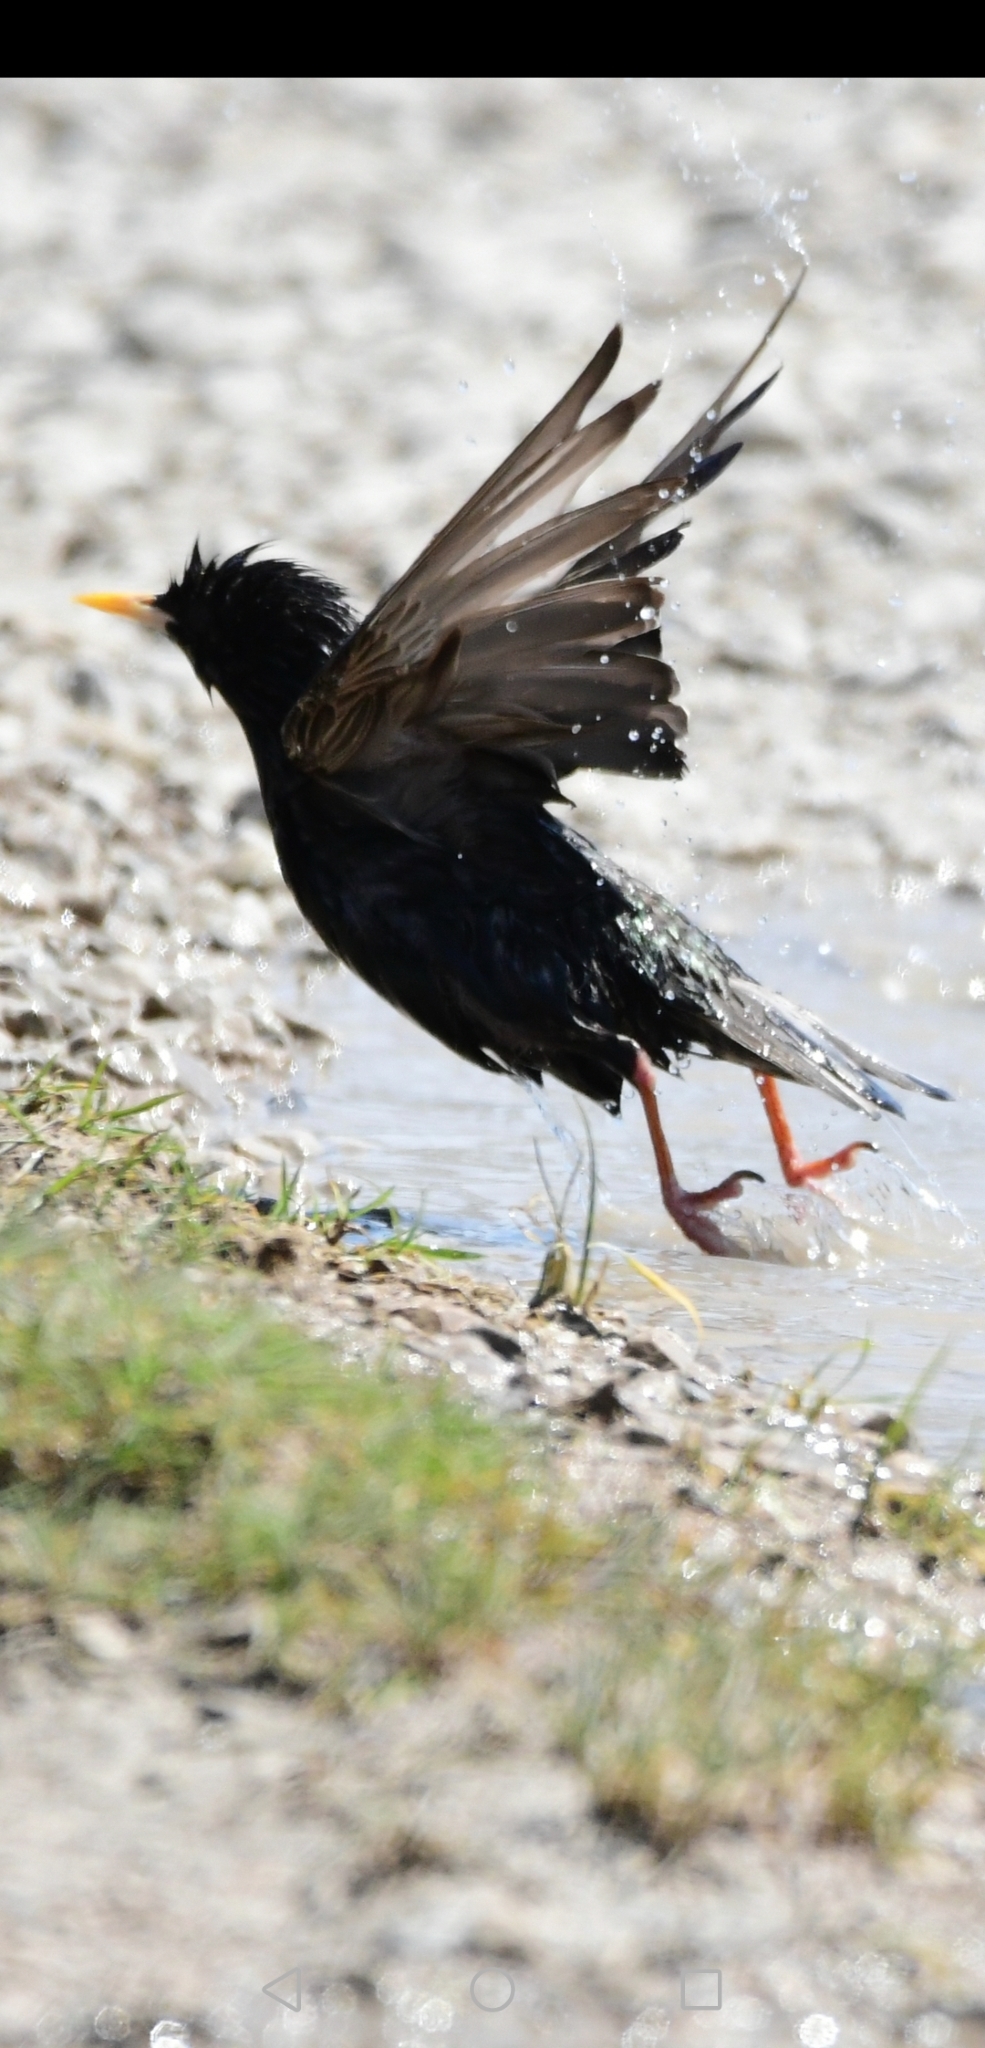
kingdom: Animalia
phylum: Chordata
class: Aves
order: Passeriformes
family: Sturnidae
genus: Sturnus
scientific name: Sturnus vulgaris
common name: Common starling
